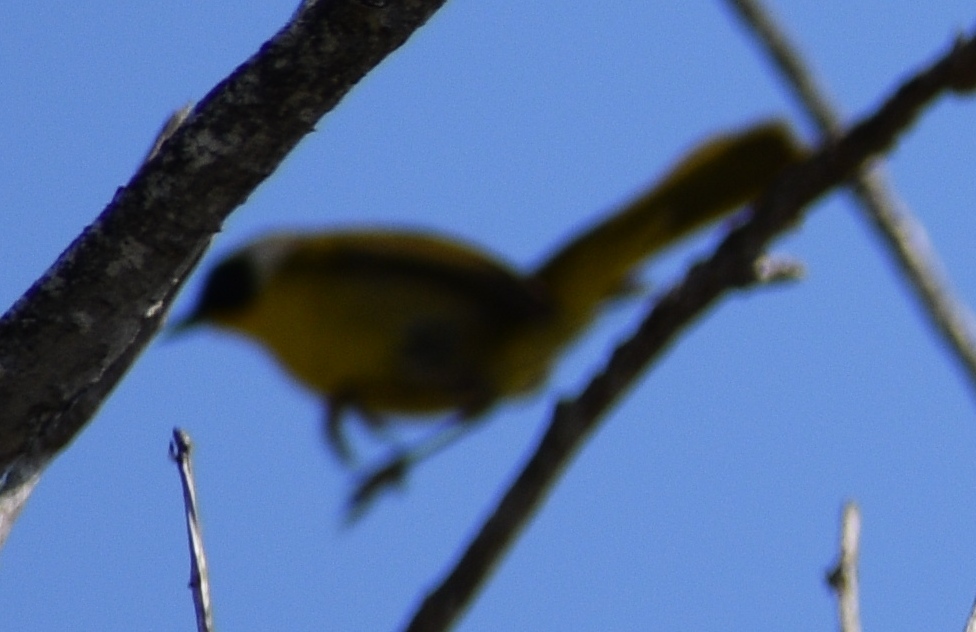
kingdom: Animalia
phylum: Chordata
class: Aves
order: Passeriformes
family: Parulidae
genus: Geothlypis
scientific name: Geothlypis trichas
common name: Common yellowthroat
